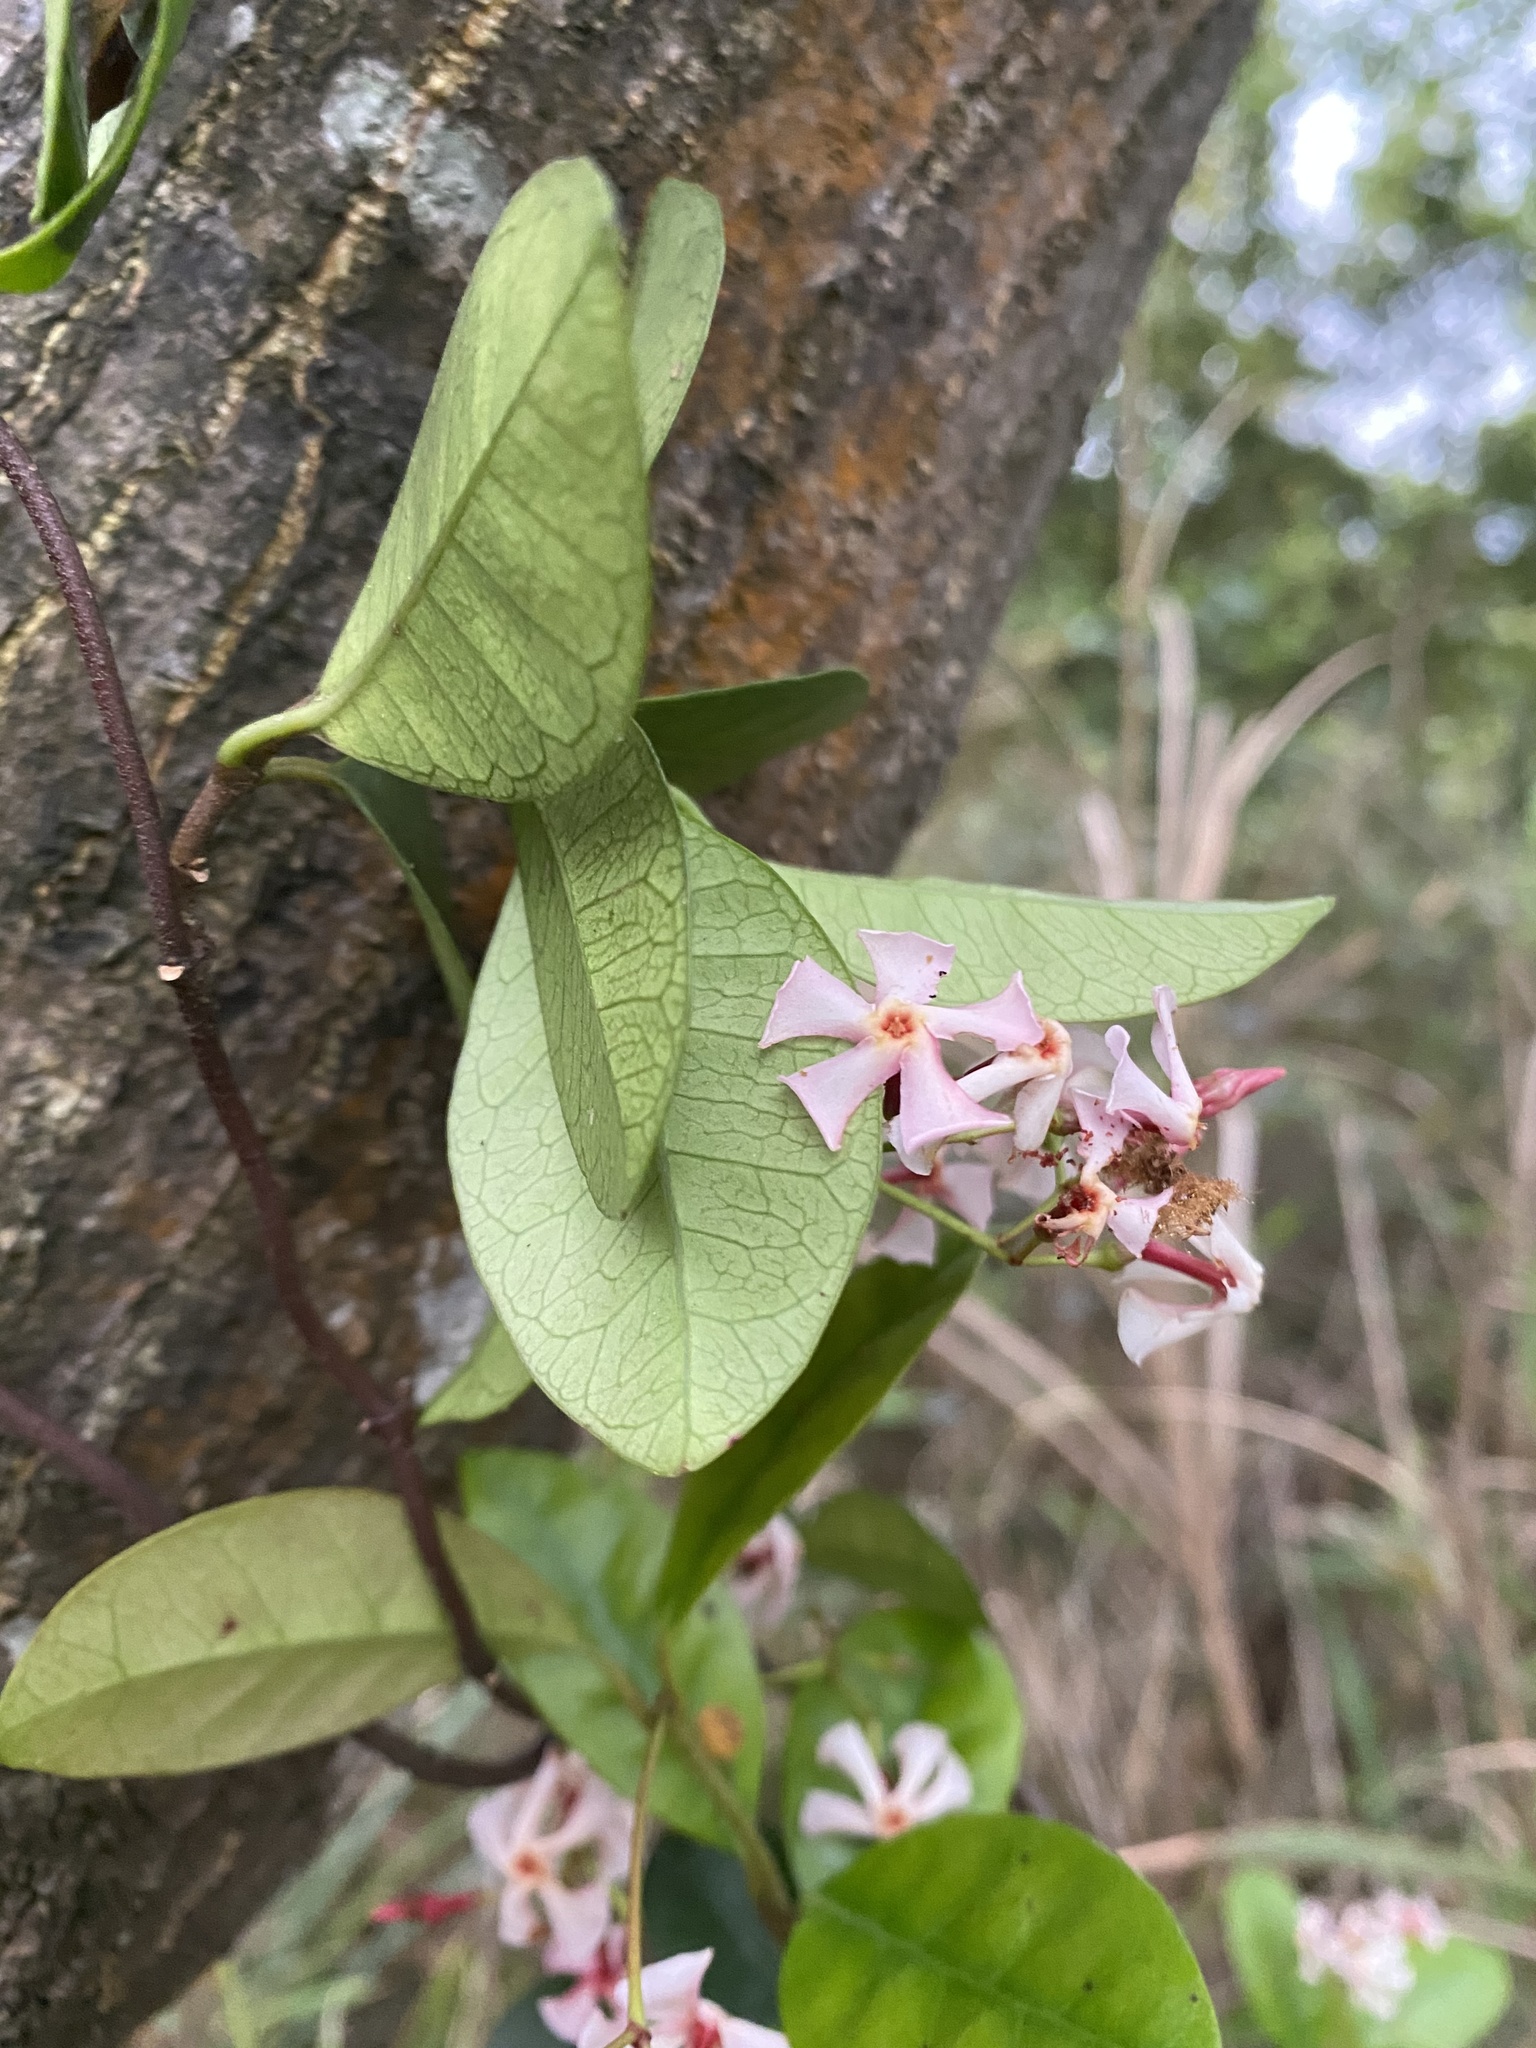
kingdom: Plantae
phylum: Tracheophyta
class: Magnoliopsida
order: Gentianales
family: Apocynaceae
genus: Trachelospermum
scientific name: Trachelospermum asiaticum
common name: Asiatic jasmine
